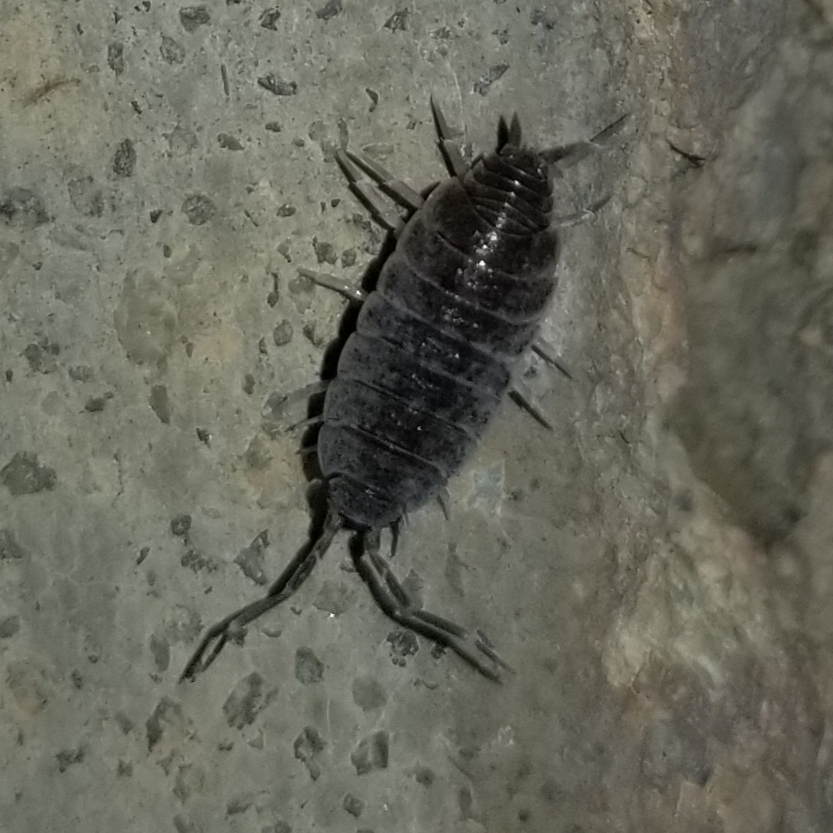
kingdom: Animalia
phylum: Arthropoda
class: Malacostraca
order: Isopoda
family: Porcellionidae
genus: Porcellionides
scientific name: Porcellionides floria
